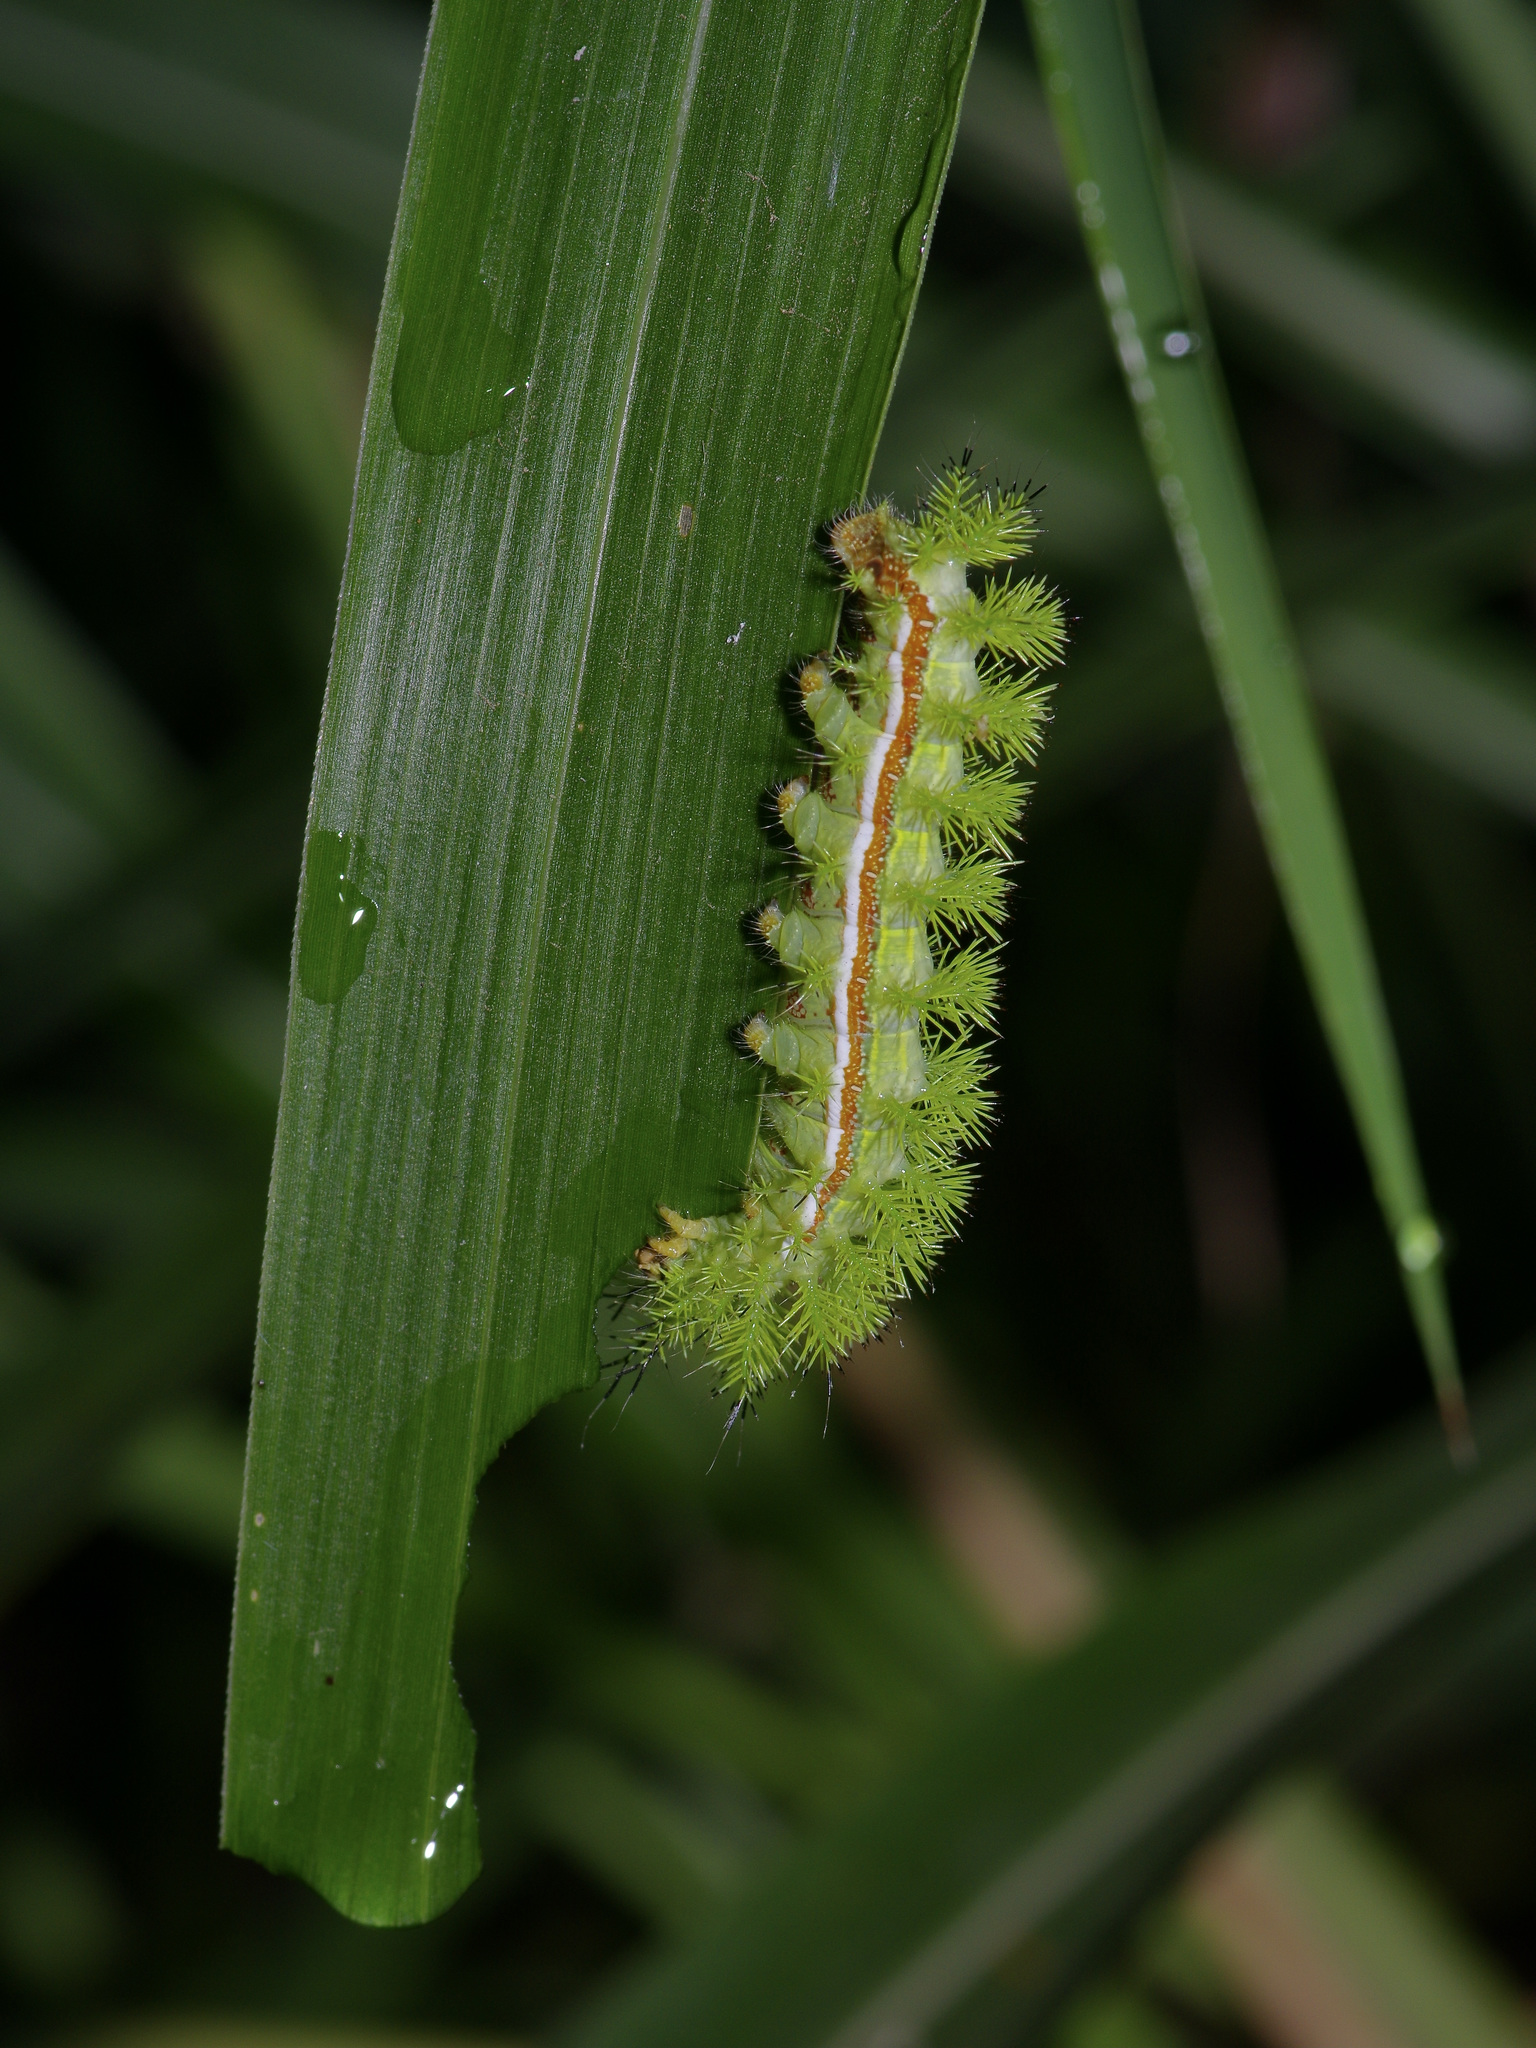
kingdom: Animalia
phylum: Arthropoda
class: Insecta
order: Lepidoptera
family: Saturniidae
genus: Automeris
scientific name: Automeris io
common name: Io moth
